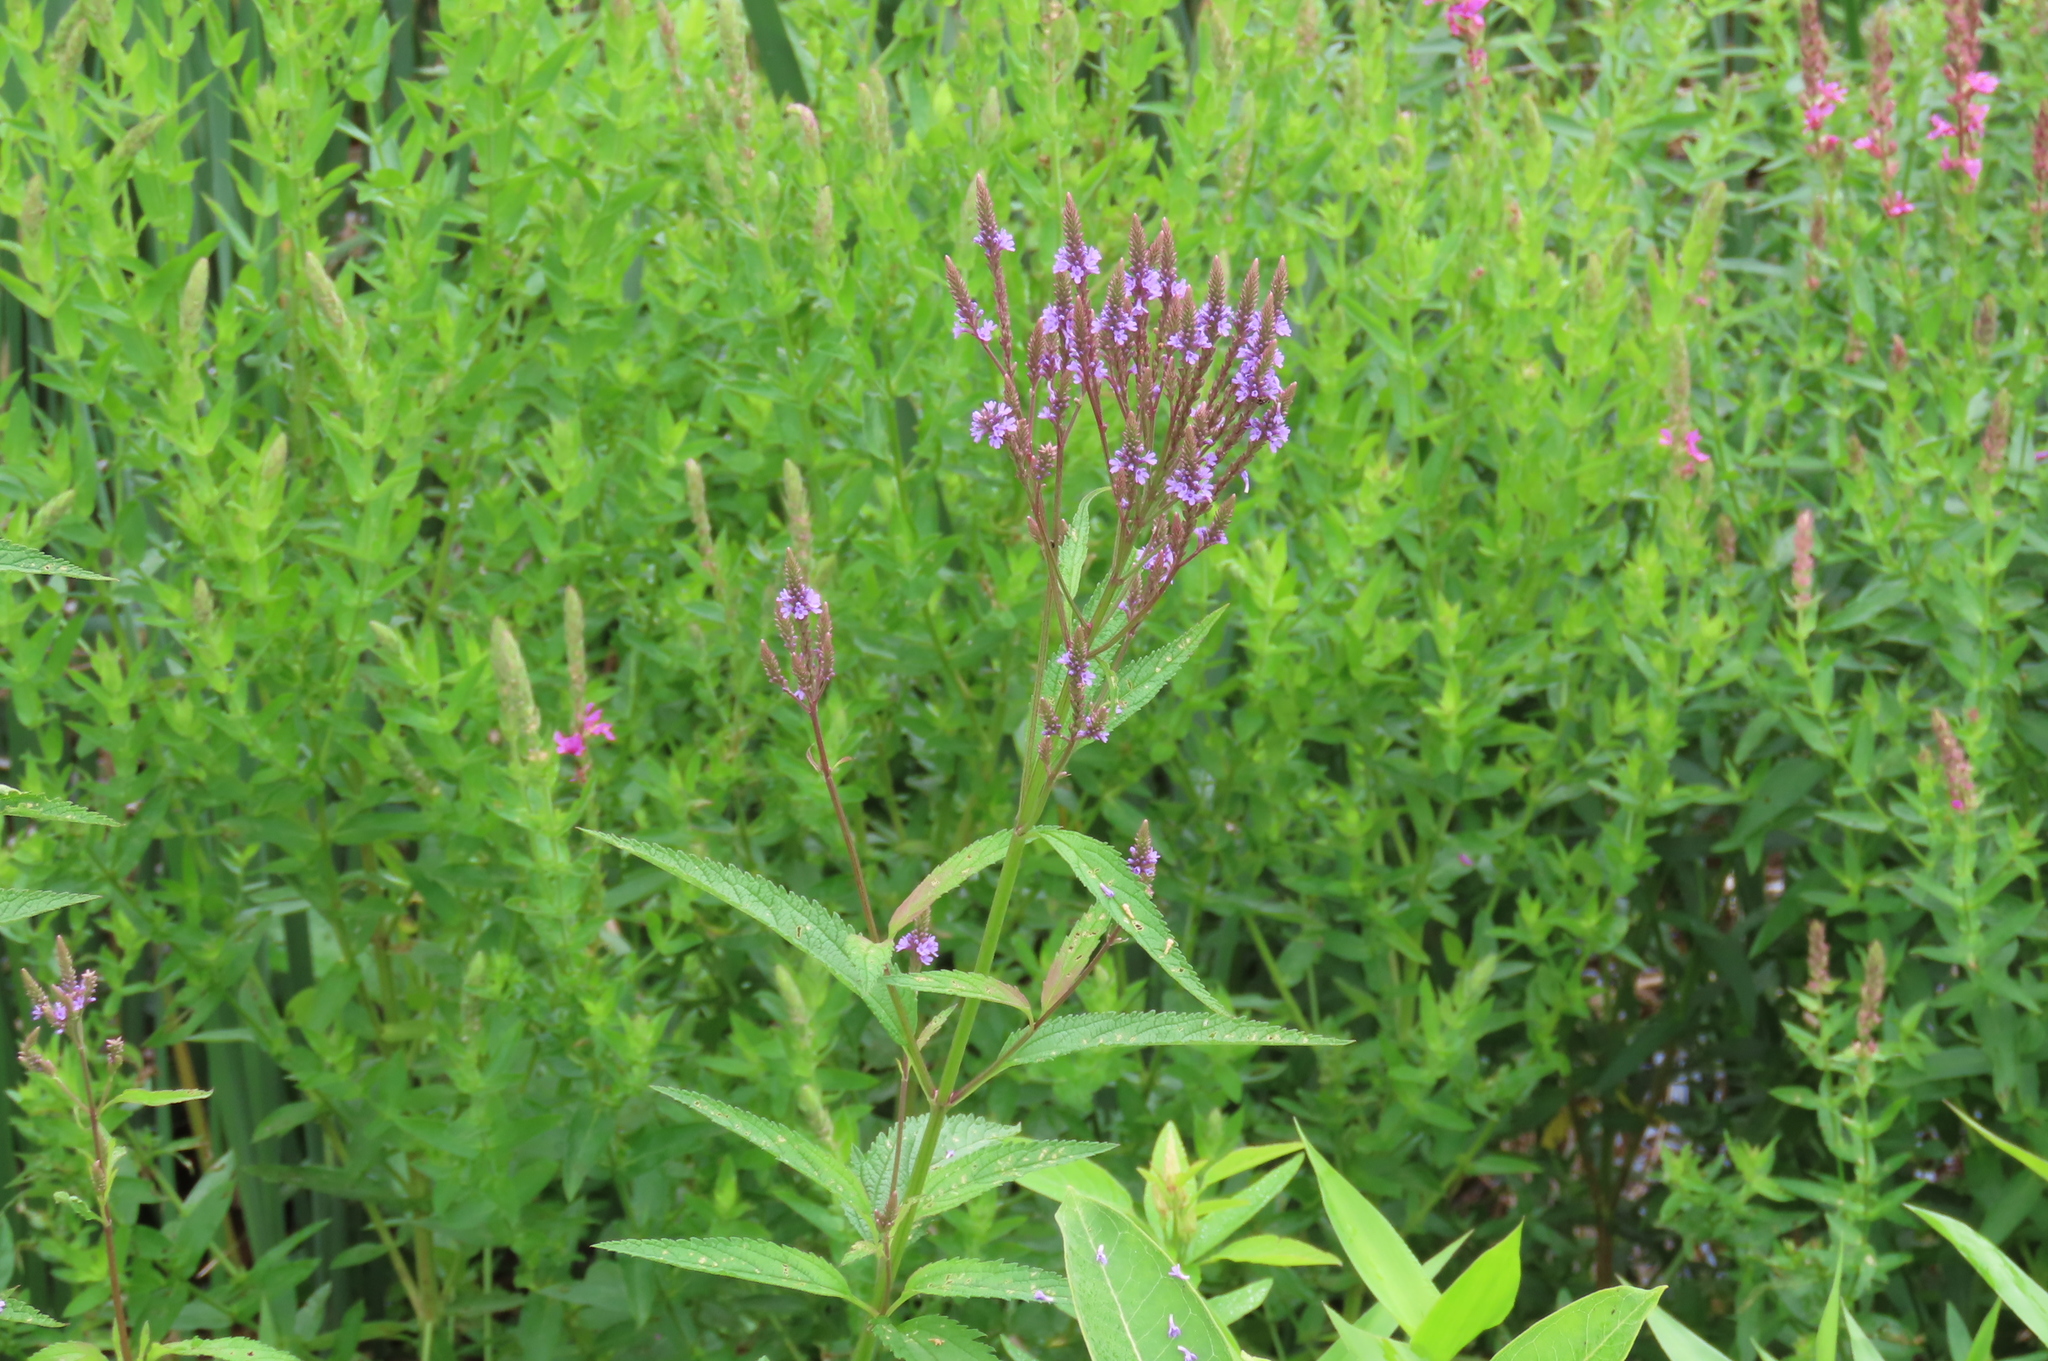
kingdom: Plantae
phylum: Tracheophyta
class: Magnoliopsida
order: Lamiales
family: Verbenaceae
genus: Verbena
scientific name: Verbena hastata
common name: American blue vervain
